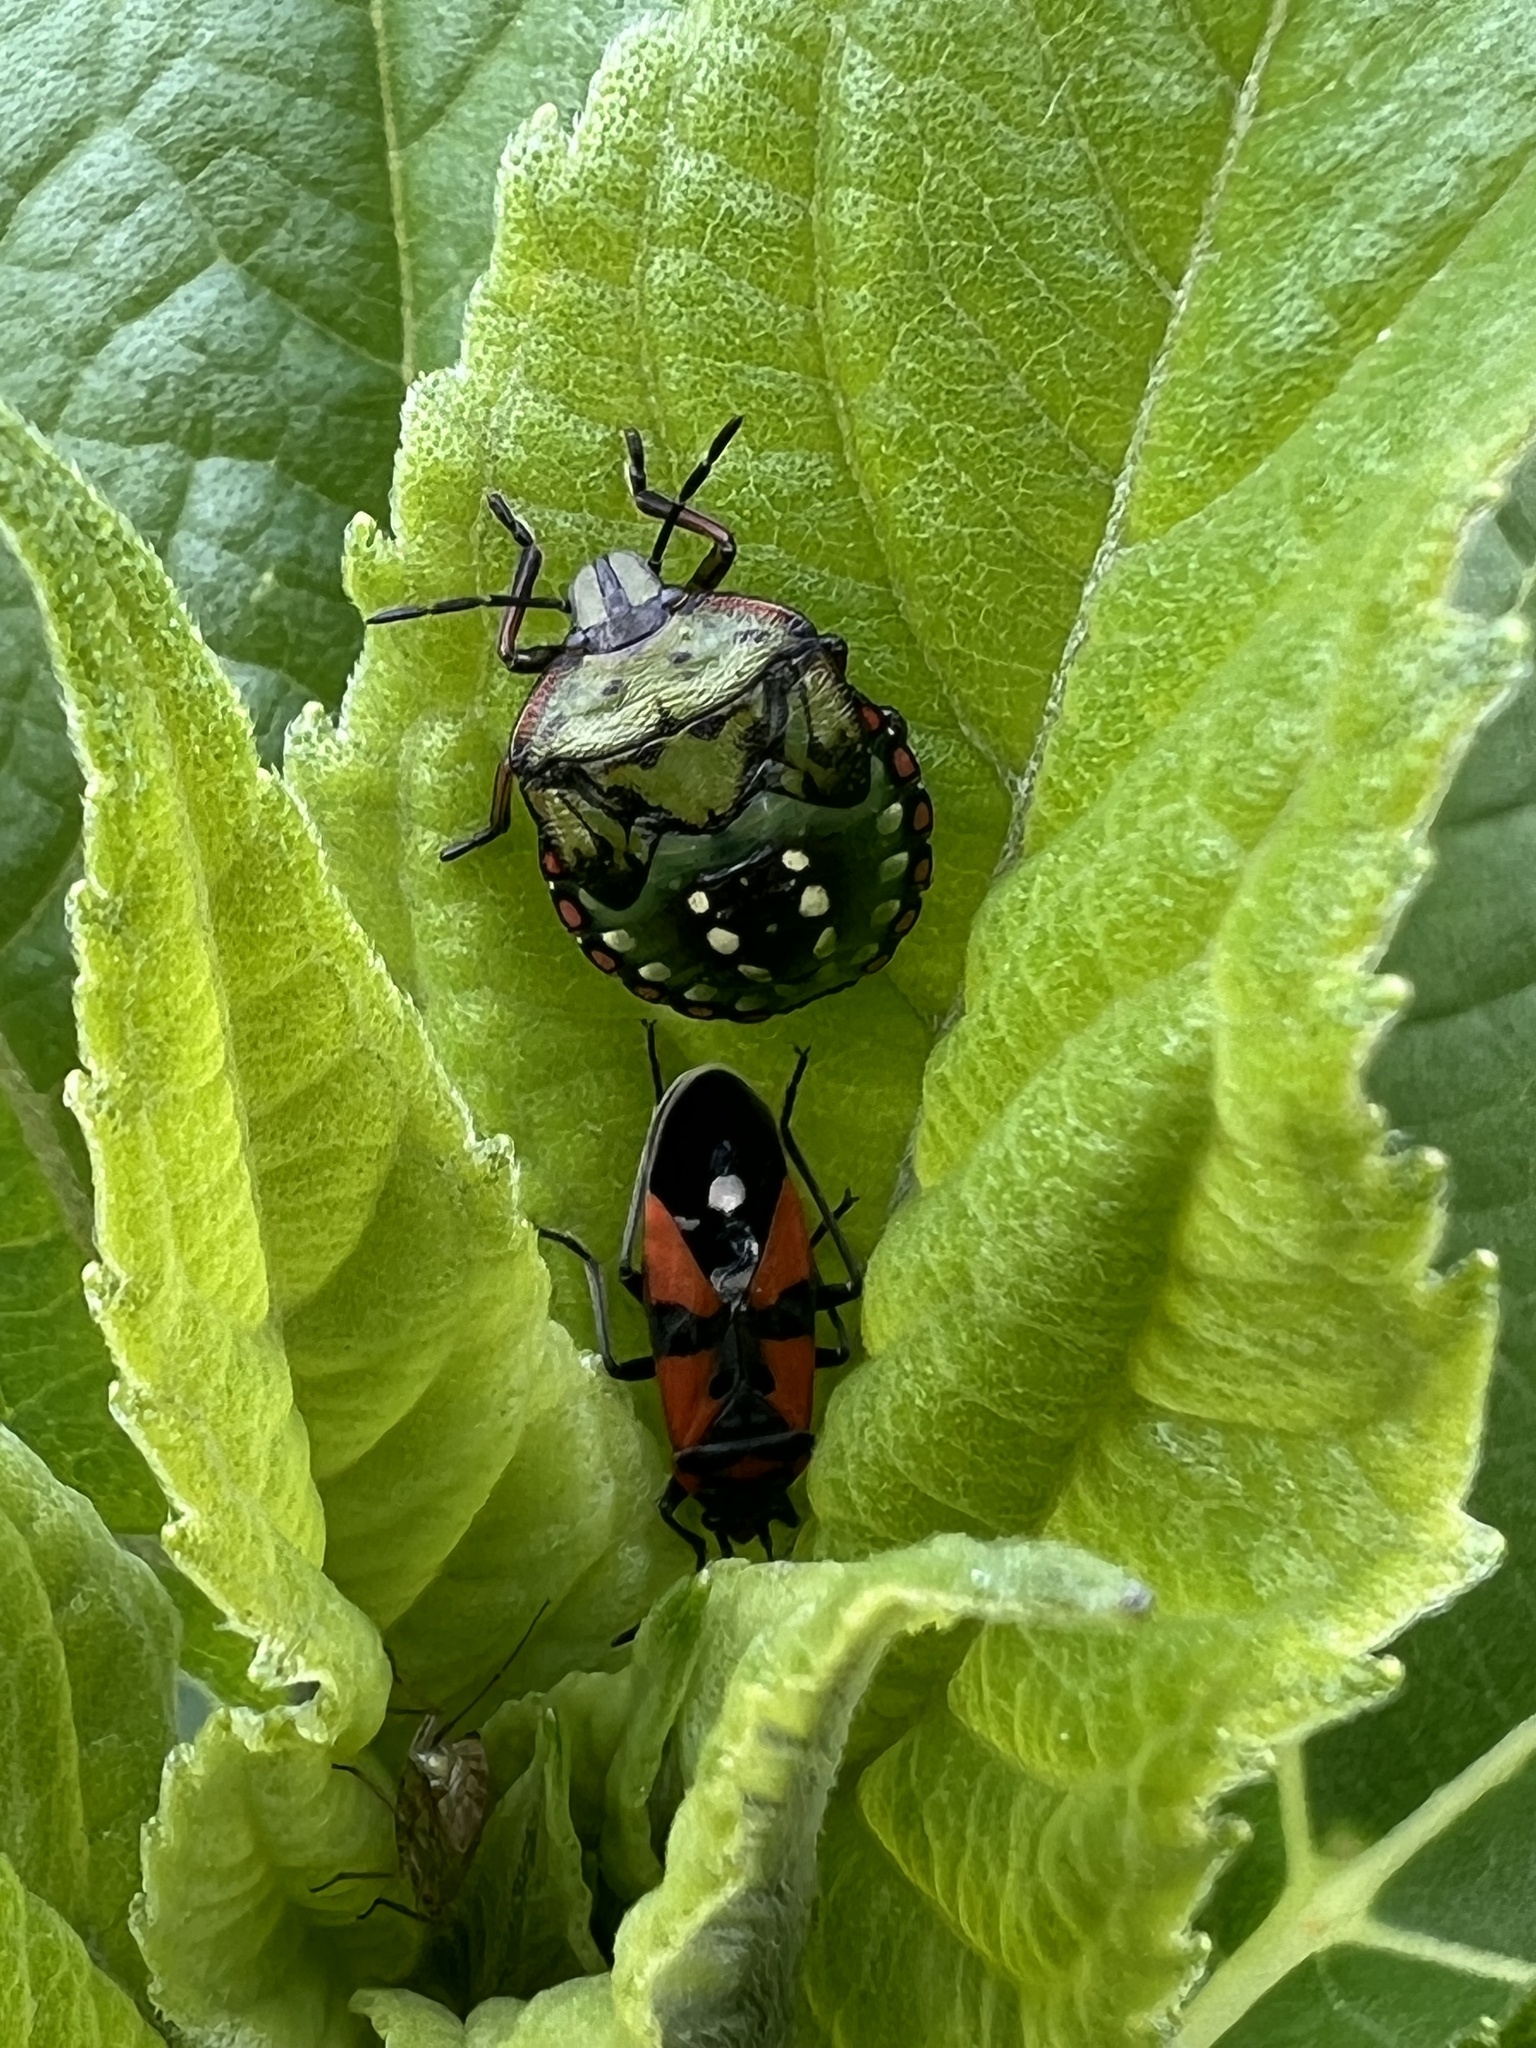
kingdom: Animalia
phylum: Arthropoda
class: Insecta
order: Hemiptera
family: Pentatomidae
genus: Nezara
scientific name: Nezara viridula
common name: Southern green stink bug
